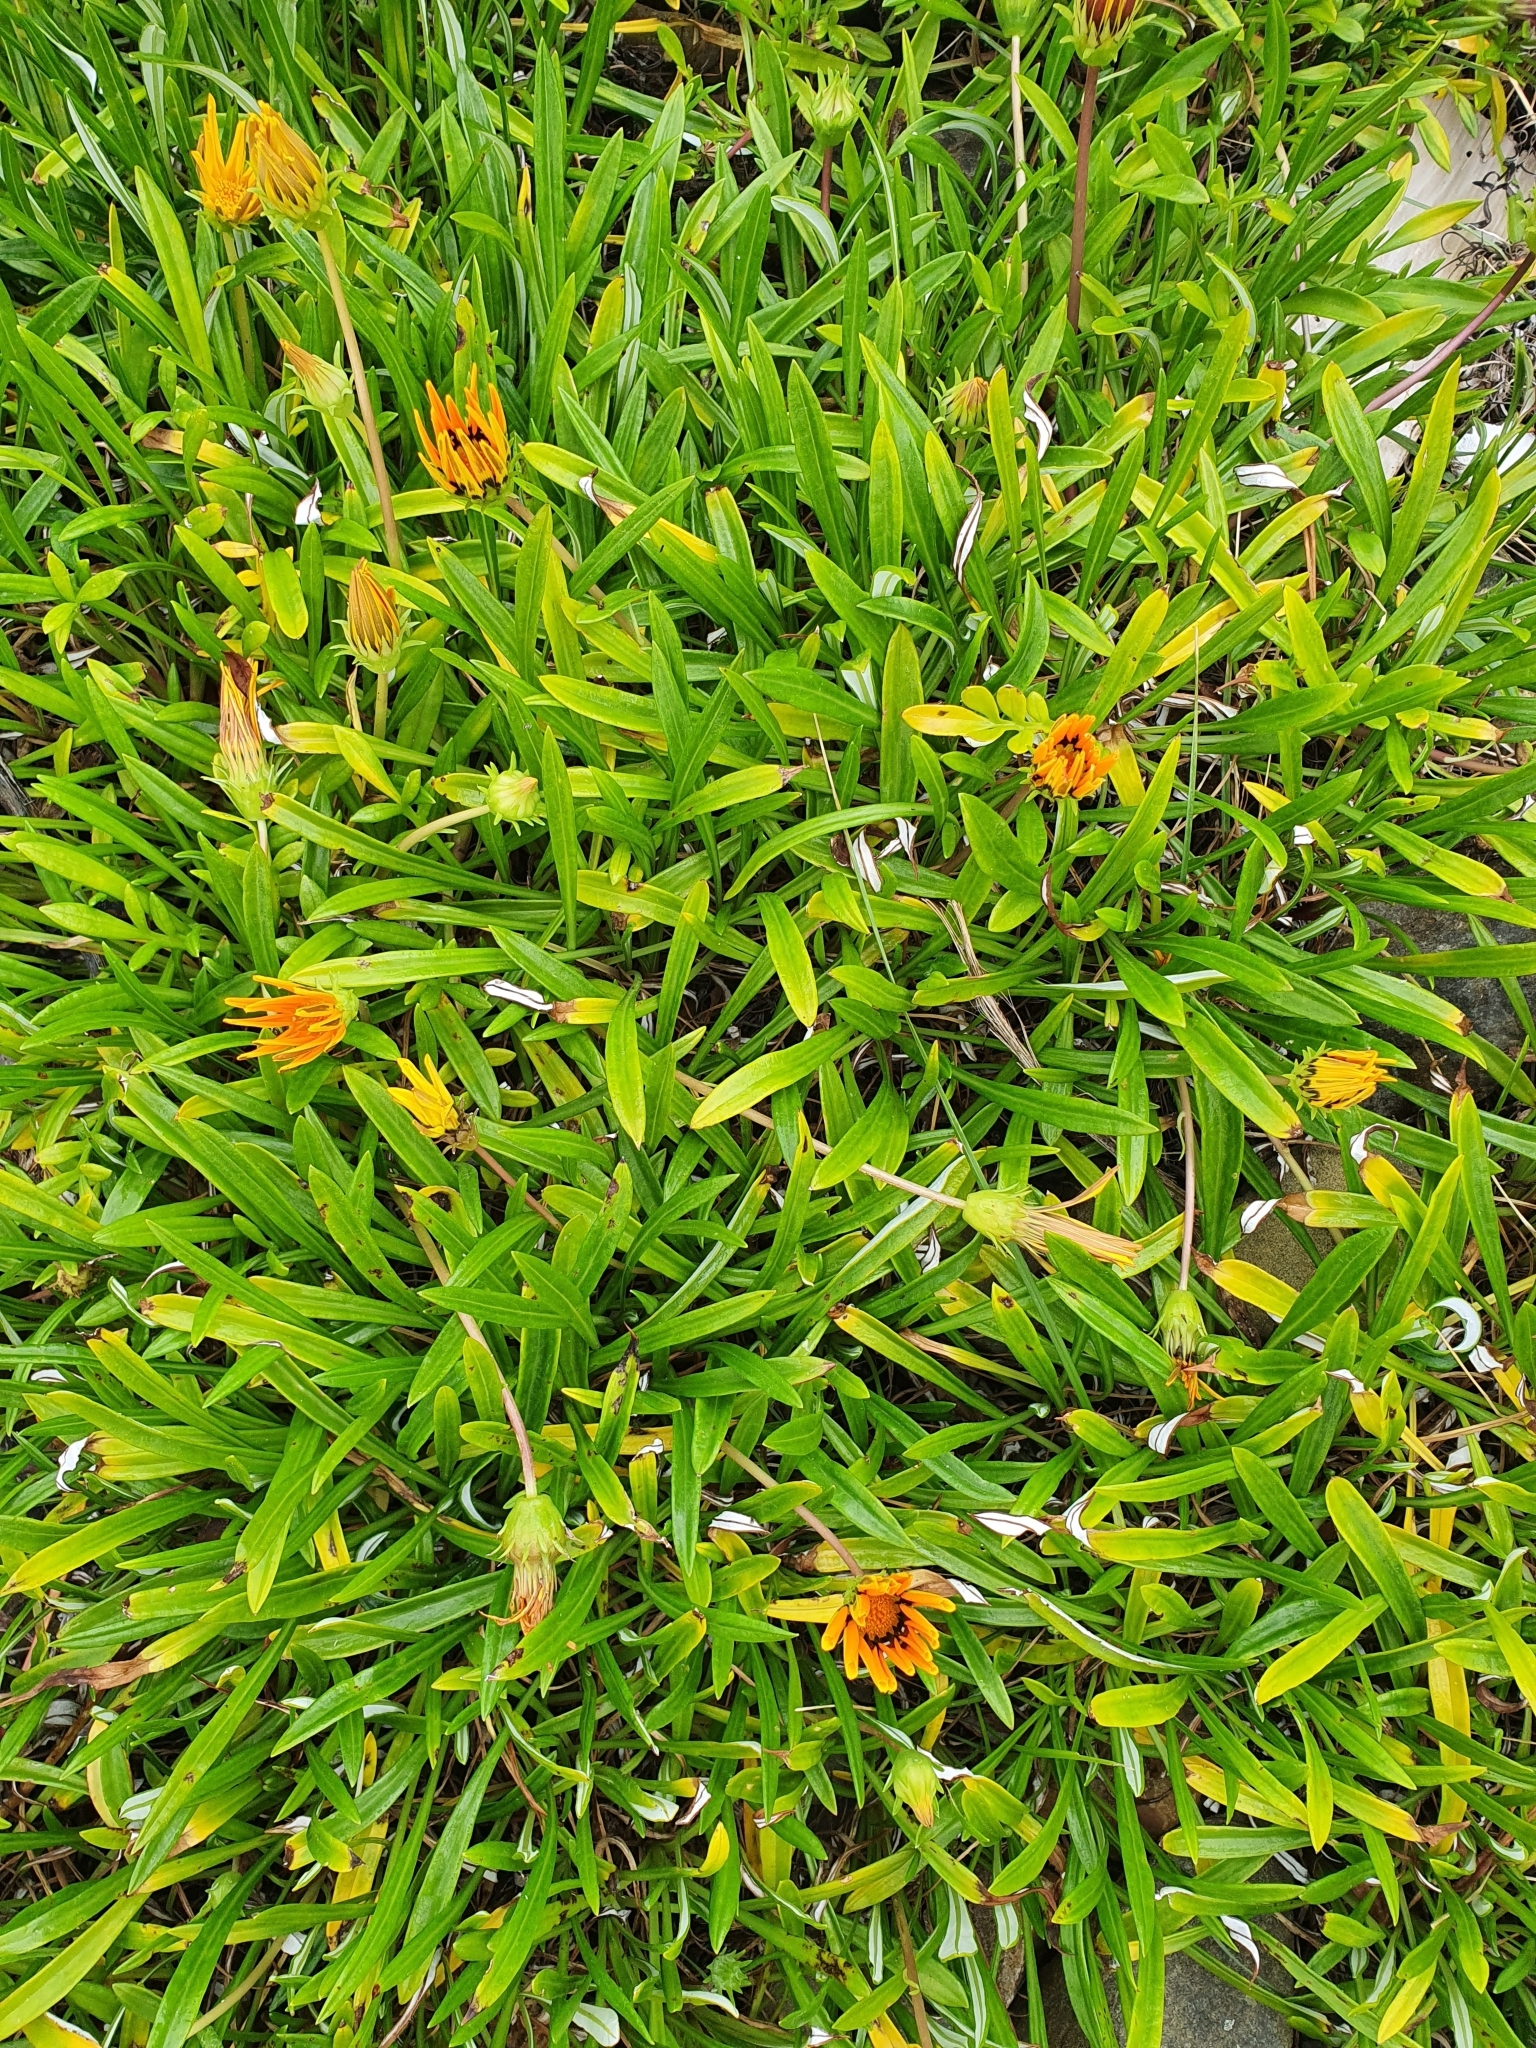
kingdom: Plantae
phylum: Tracheophyta
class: Magnoliopsida
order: Asterales
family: Asteraceae
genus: Gazania
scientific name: Gazania rigens
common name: Treasureflower
